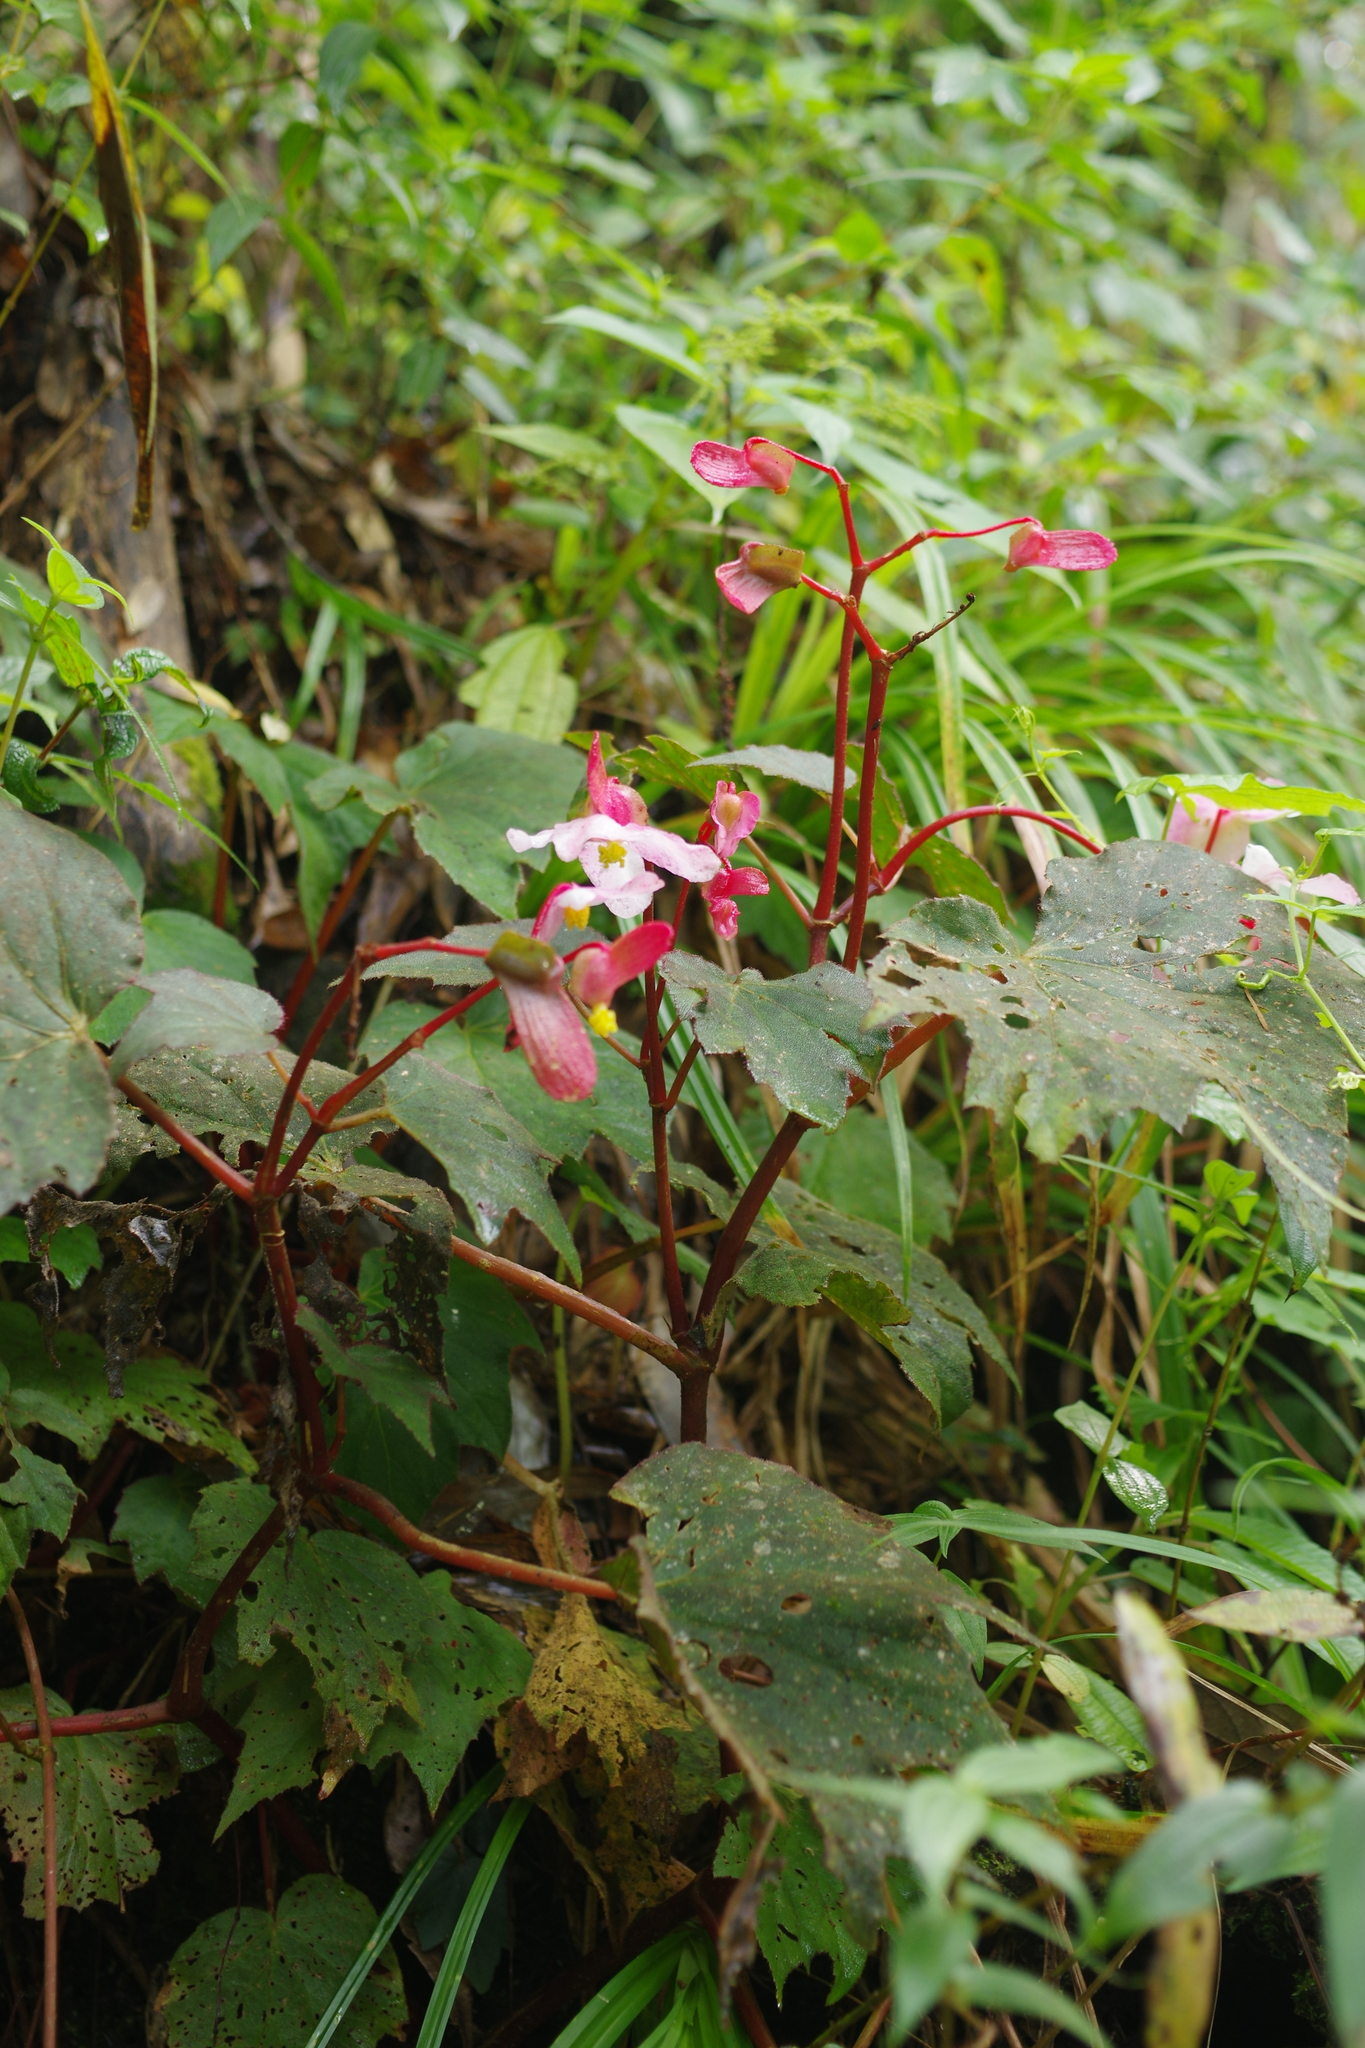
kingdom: Plantae
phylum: Tracheophyta
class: Magnoliopsida
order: Cucurbitales
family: Begoniaceae
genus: Begonia
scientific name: Begonia palmata
